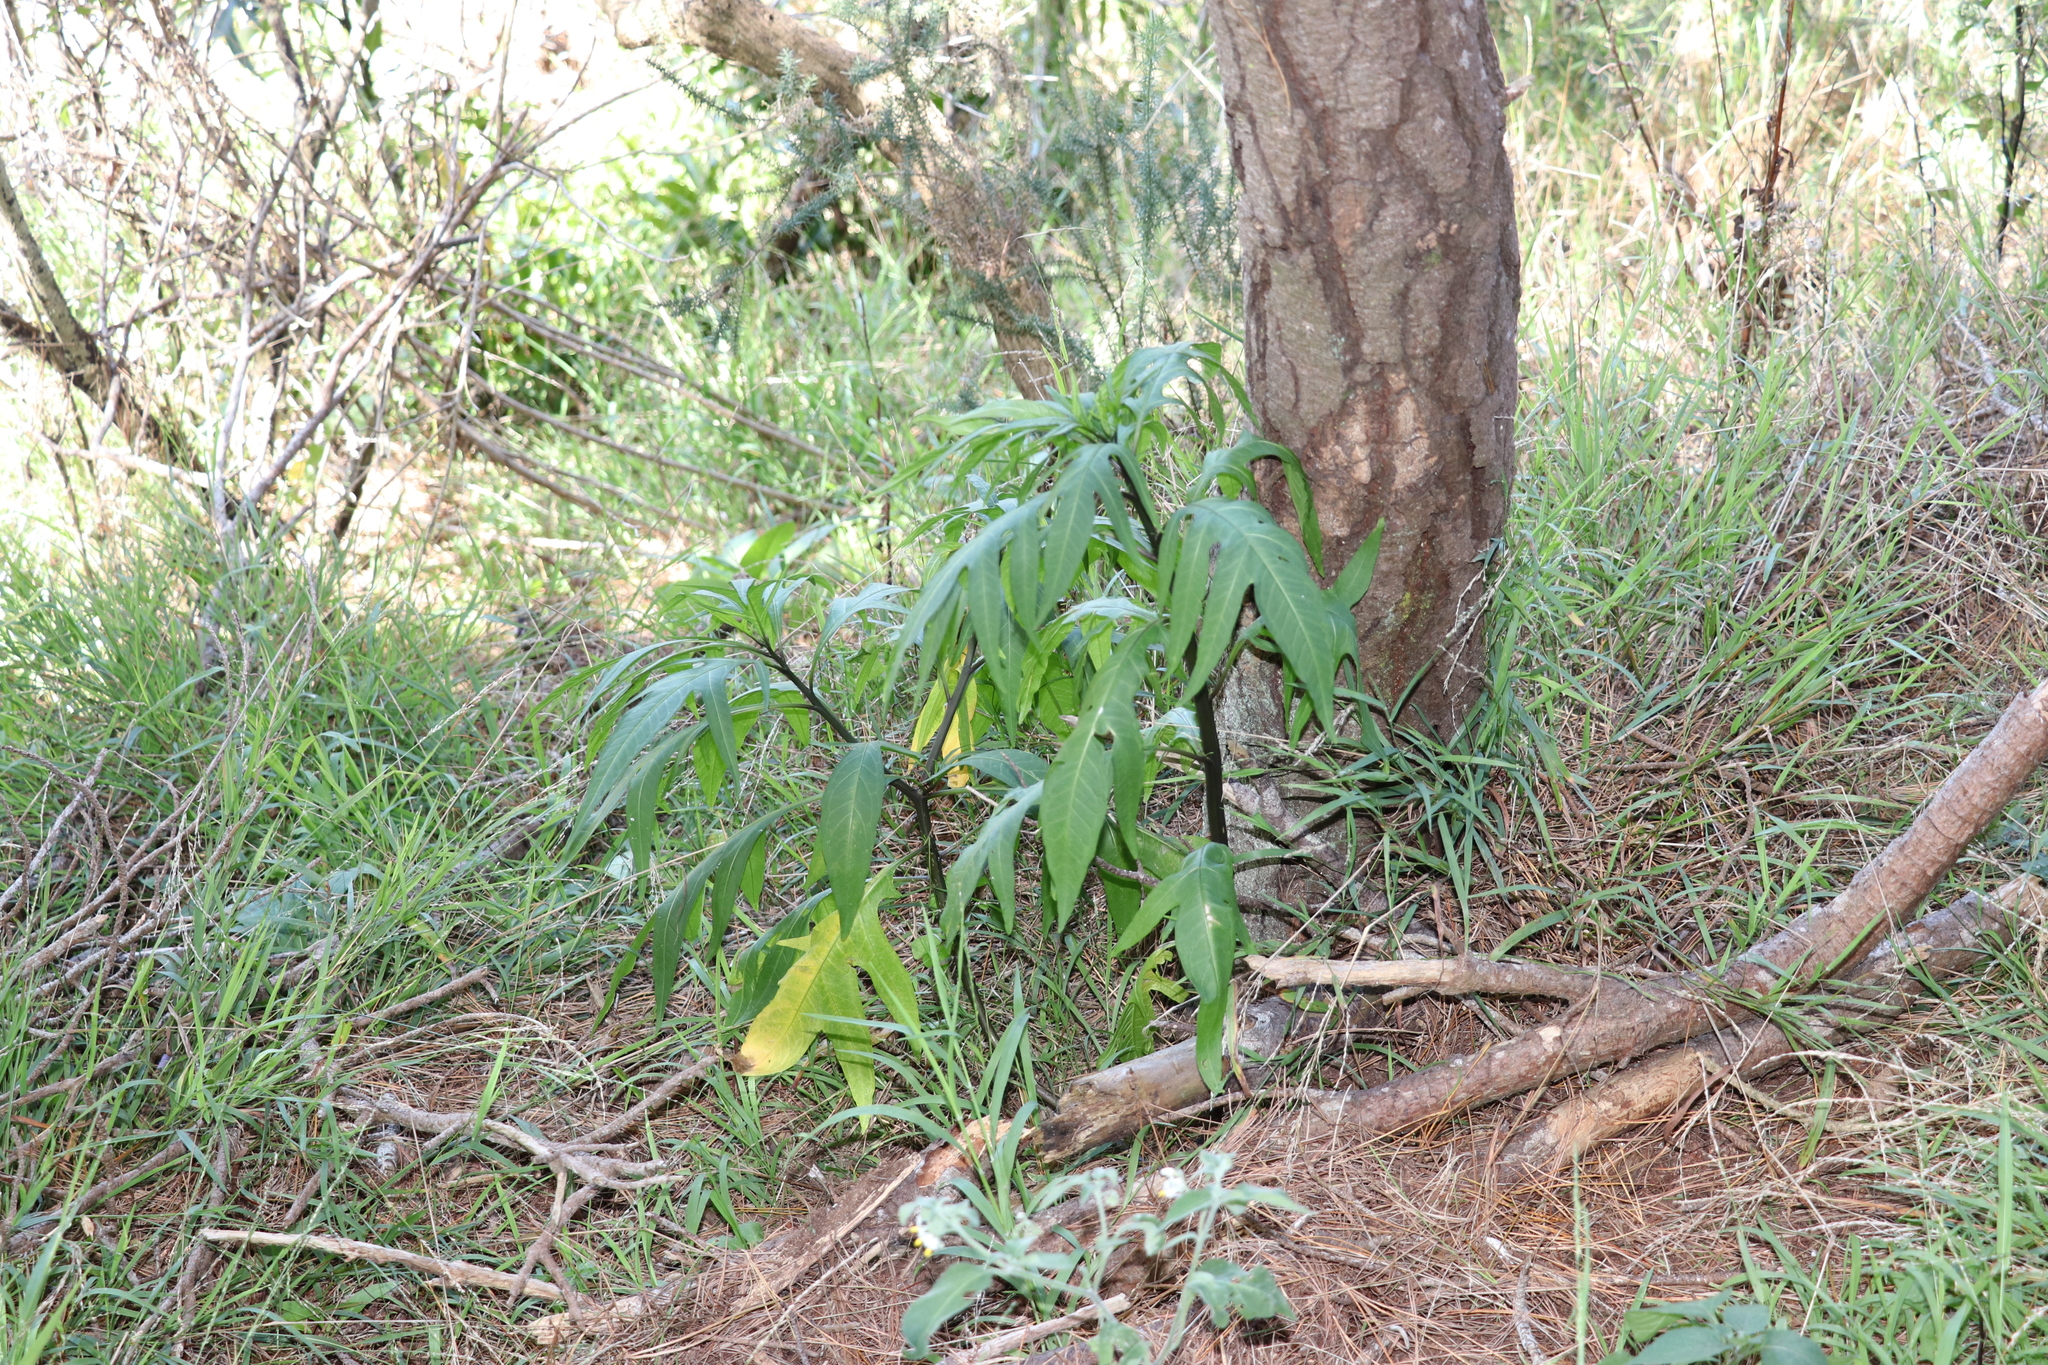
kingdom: Plantae
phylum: Tracheophyta
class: Magnoliopsida
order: Solanales
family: Solanaceae
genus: Solanum
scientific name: Solanum
